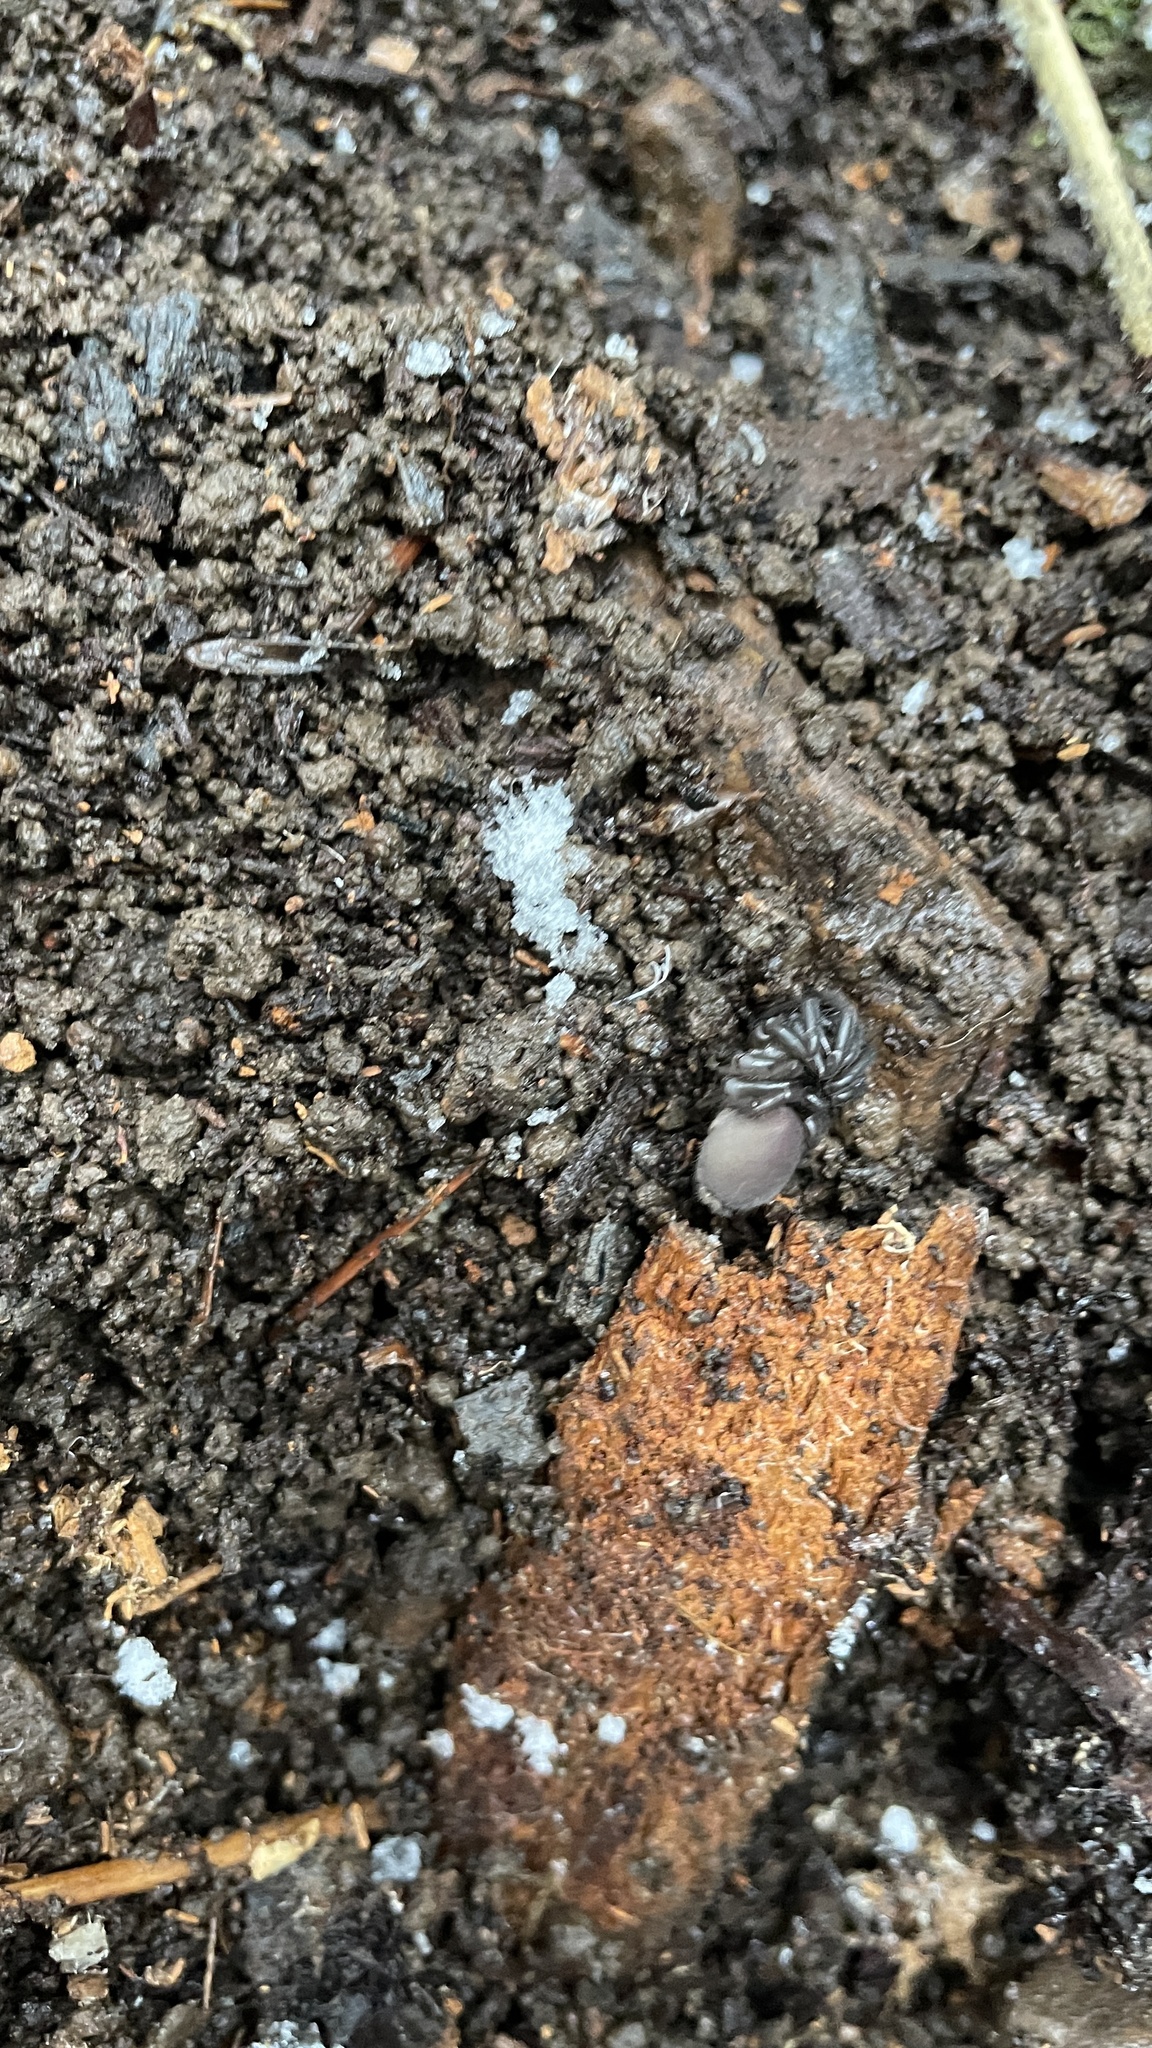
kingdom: Animalia
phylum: Arthropoda
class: Arachnida
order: Araneae
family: Antrodiaetidae
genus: Antrodiaetus
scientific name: Antrodiaetus pacificus
